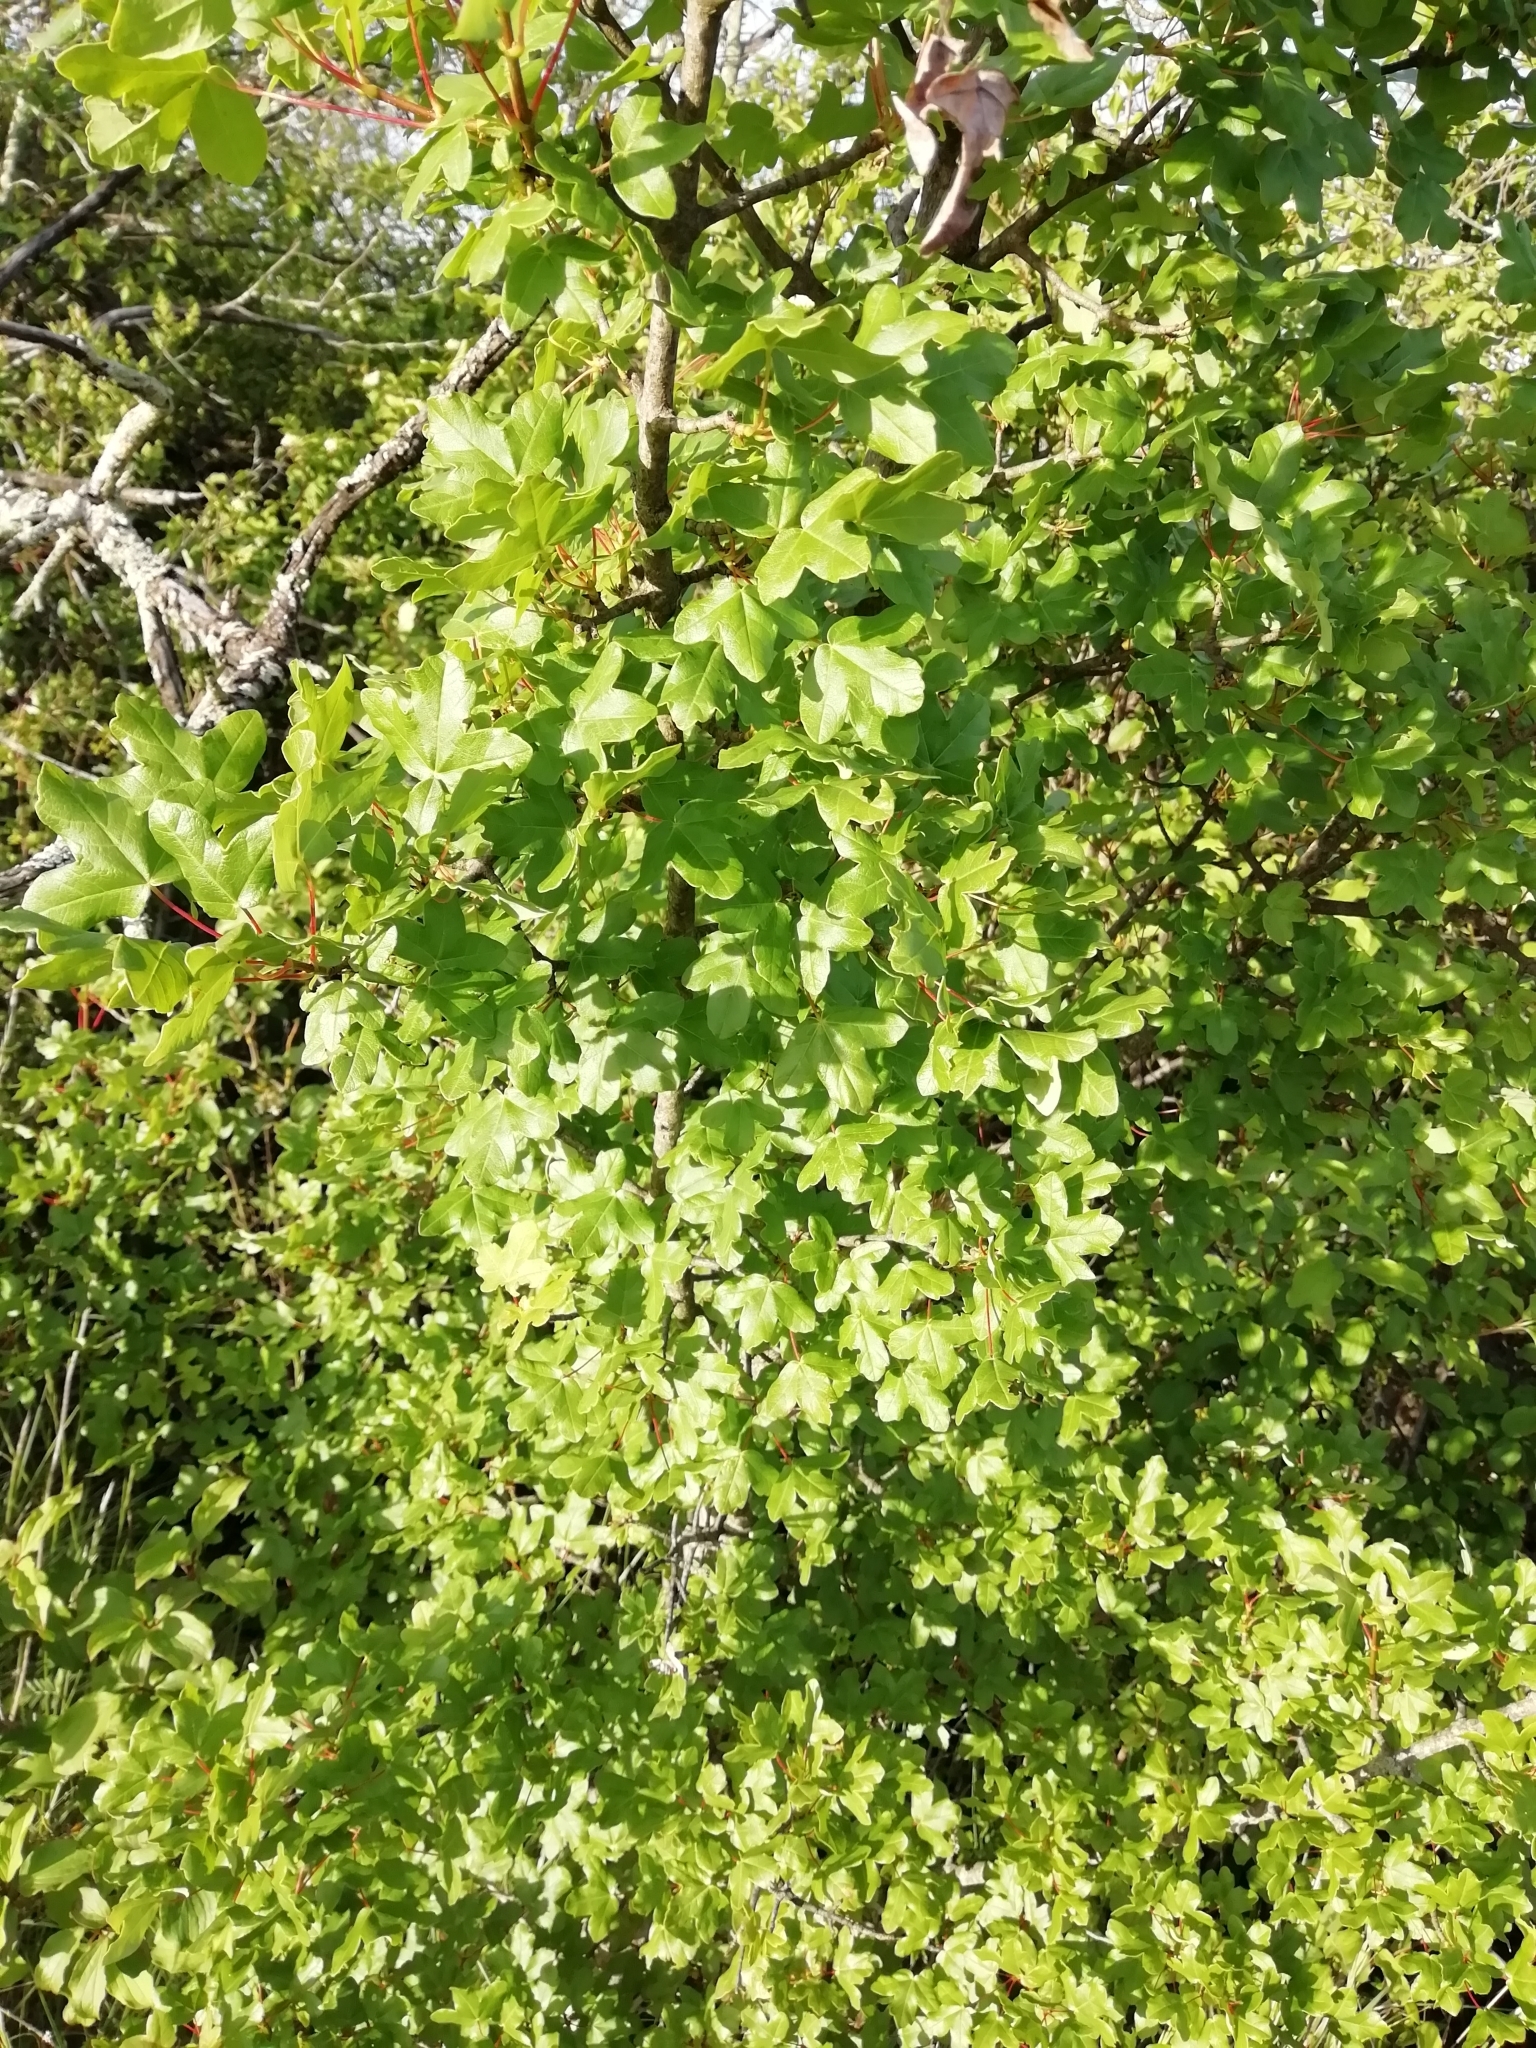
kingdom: Plantae
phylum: Tracheophyta
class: Magnoliopsida
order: Sapindales
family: Sapindaceae
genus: Acer
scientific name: Acer monspessulanum
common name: Montpellier maple
